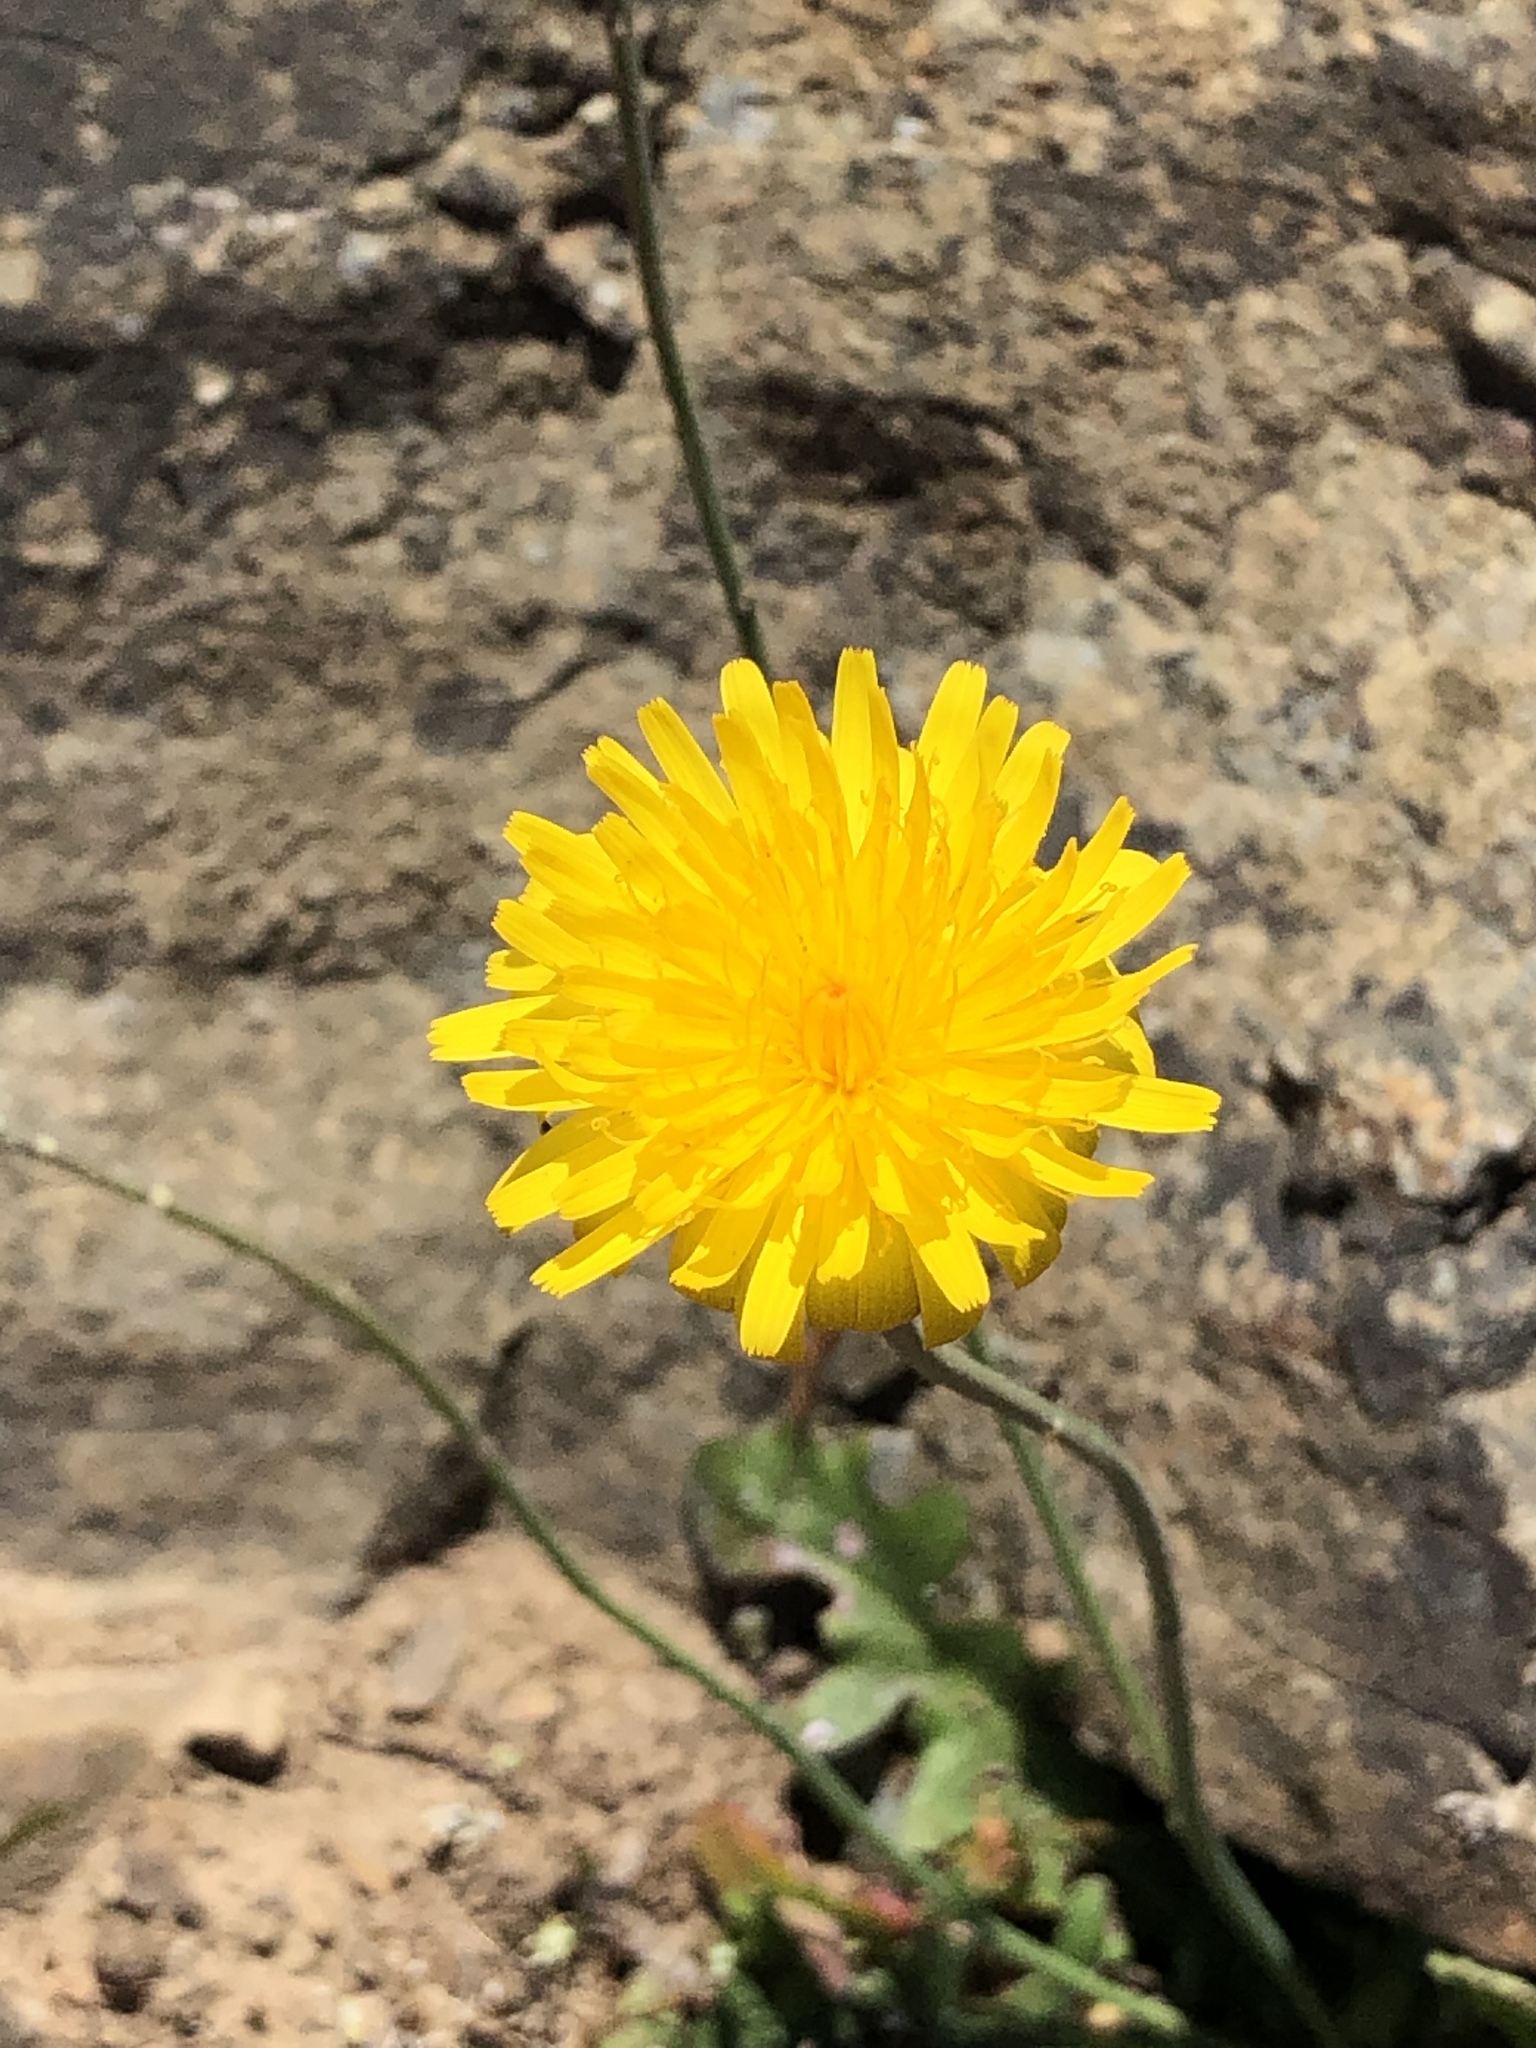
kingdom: Plantae
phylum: Tracheophyta
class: Magnoliopsida
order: Asterales
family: Asteraceae
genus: Hypochaeris
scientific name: Hypochaeris radicata
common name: Flatweed
